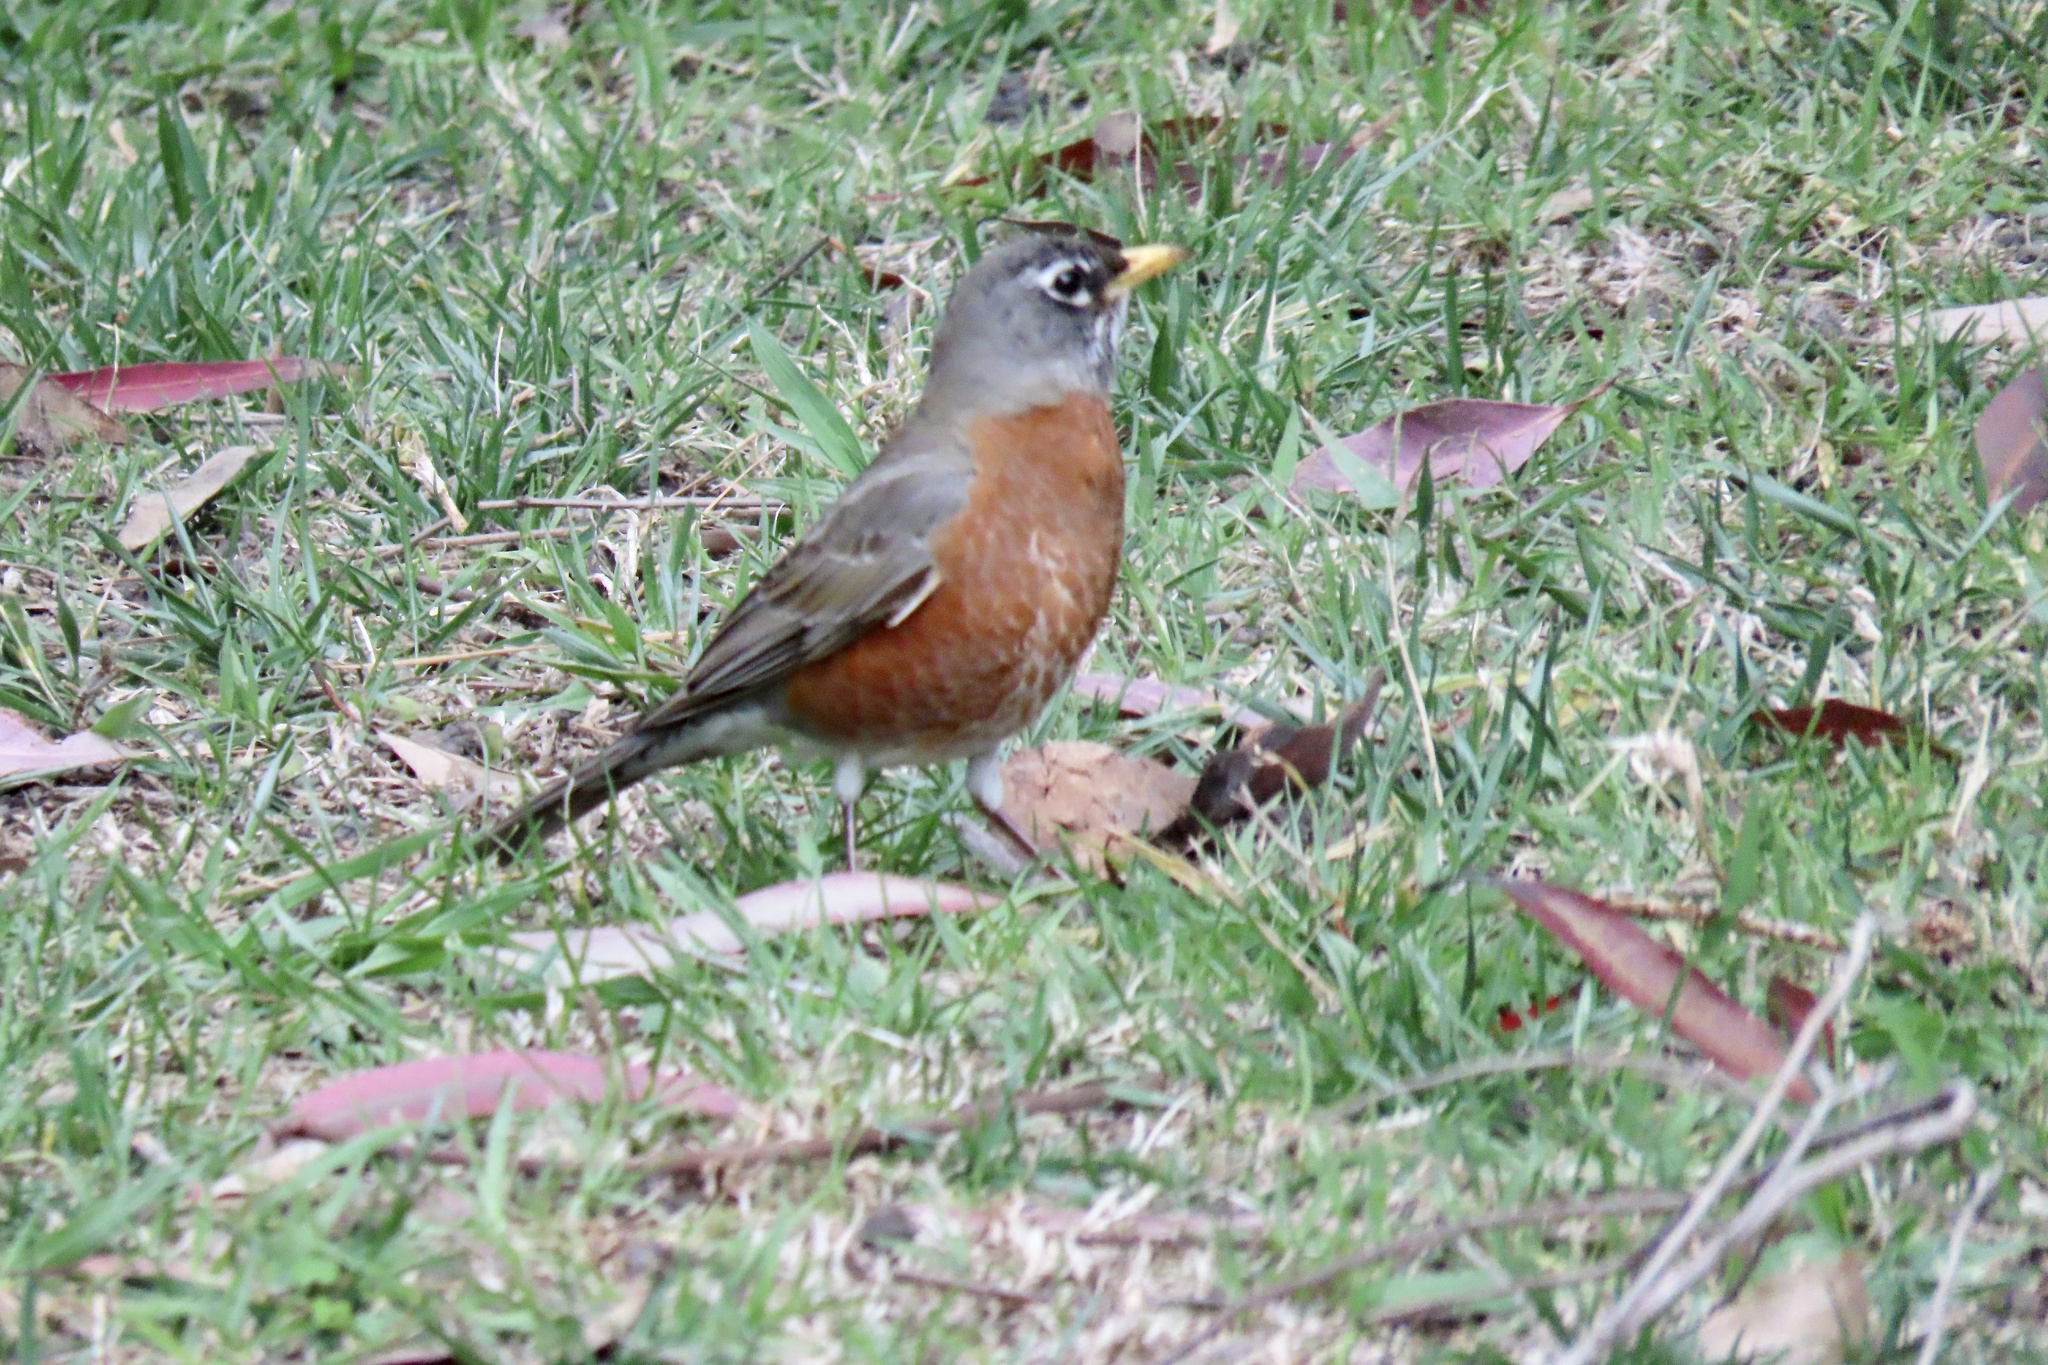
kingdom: Animalia
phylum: Chordata
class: Aves
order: Passeriformes
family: Turdidae
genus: Turdus
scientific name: Turdus migratorius
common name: American robin
